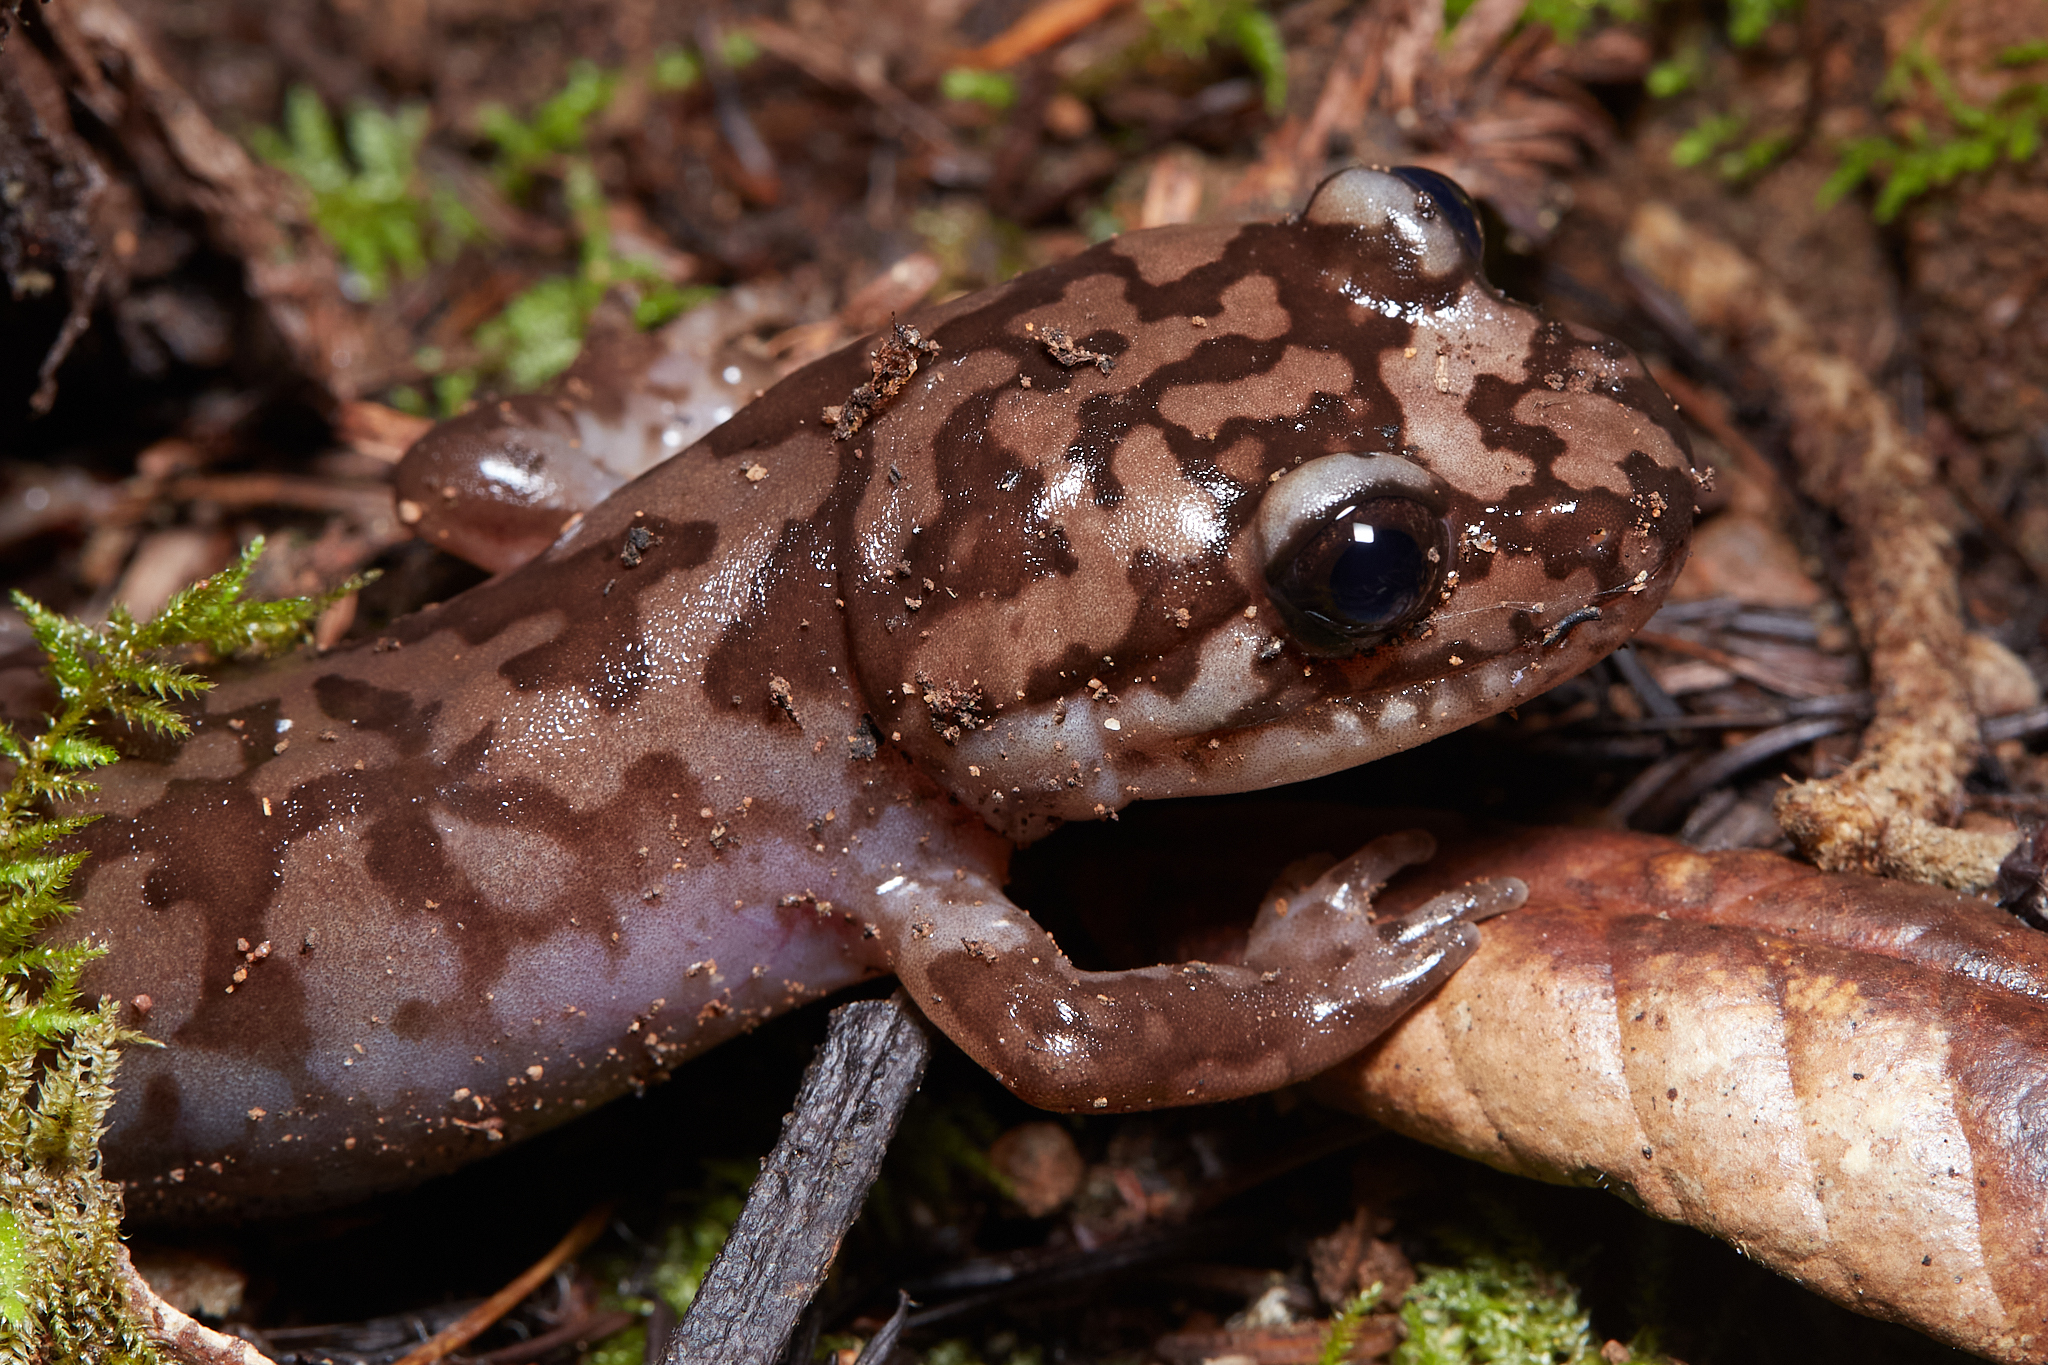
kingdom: Animalia
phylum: Chordata
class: Amphibia
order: Caudata
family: Ambystomatidae
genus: Dicamptodon
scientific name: Dicamptodon ensatus
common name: California giant salamander
